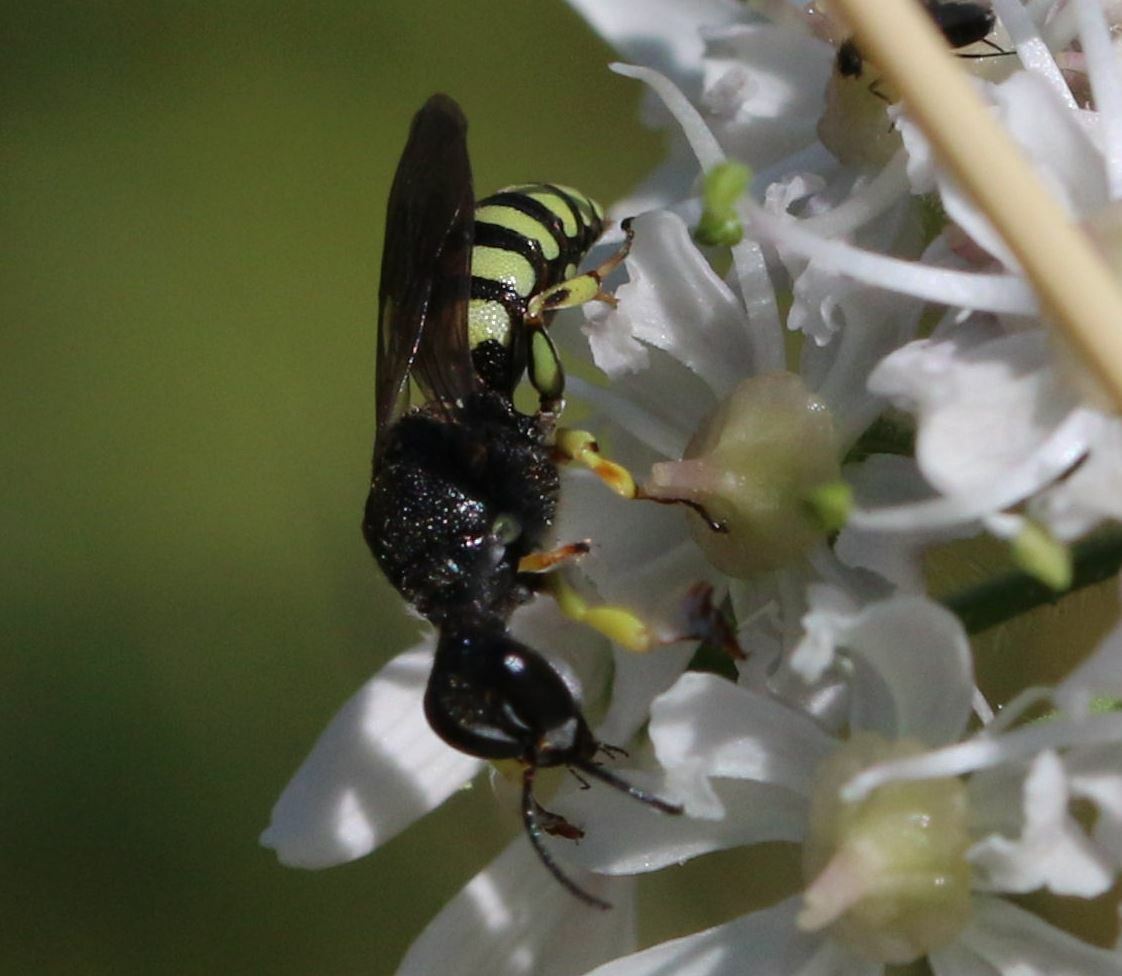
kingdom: Animalia
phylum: Arthropoda
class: Insecta
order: Hymenoptera
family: Crabronidae
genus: Lestica
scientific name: Lestica clypeata
